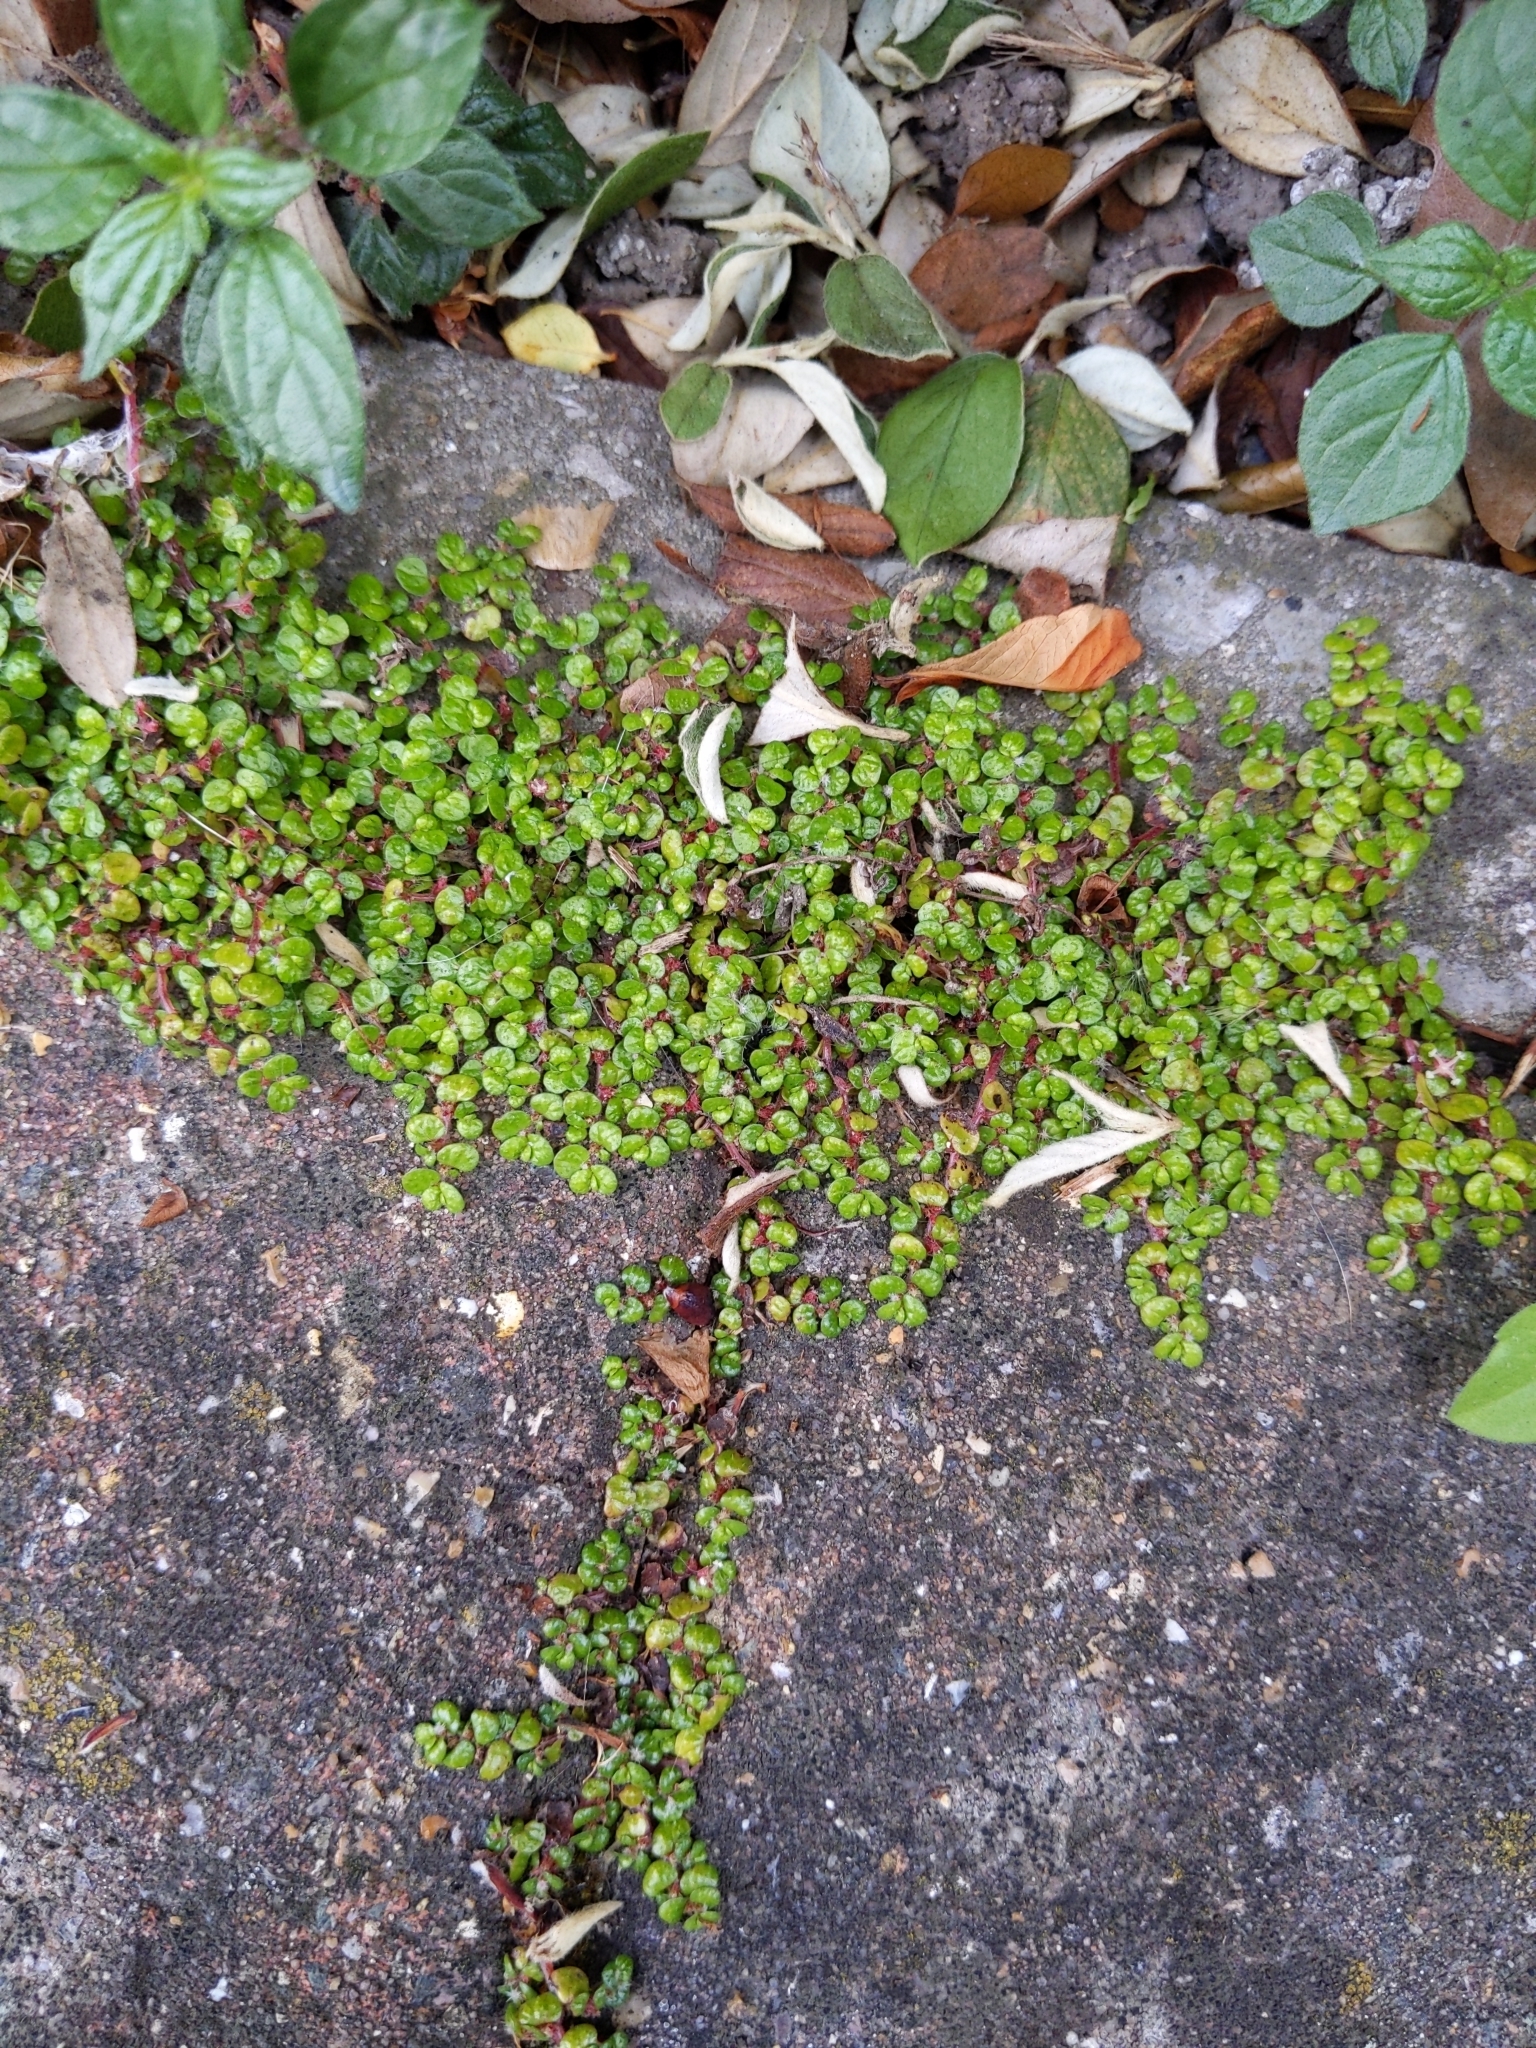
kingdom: Plantae
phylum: Tracheophyta
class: Magnoliopsida
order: Rosales
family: Urticaceae
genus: Soleirolia
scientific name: Soleirolia soleirolii
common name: Mind-your-own-business
